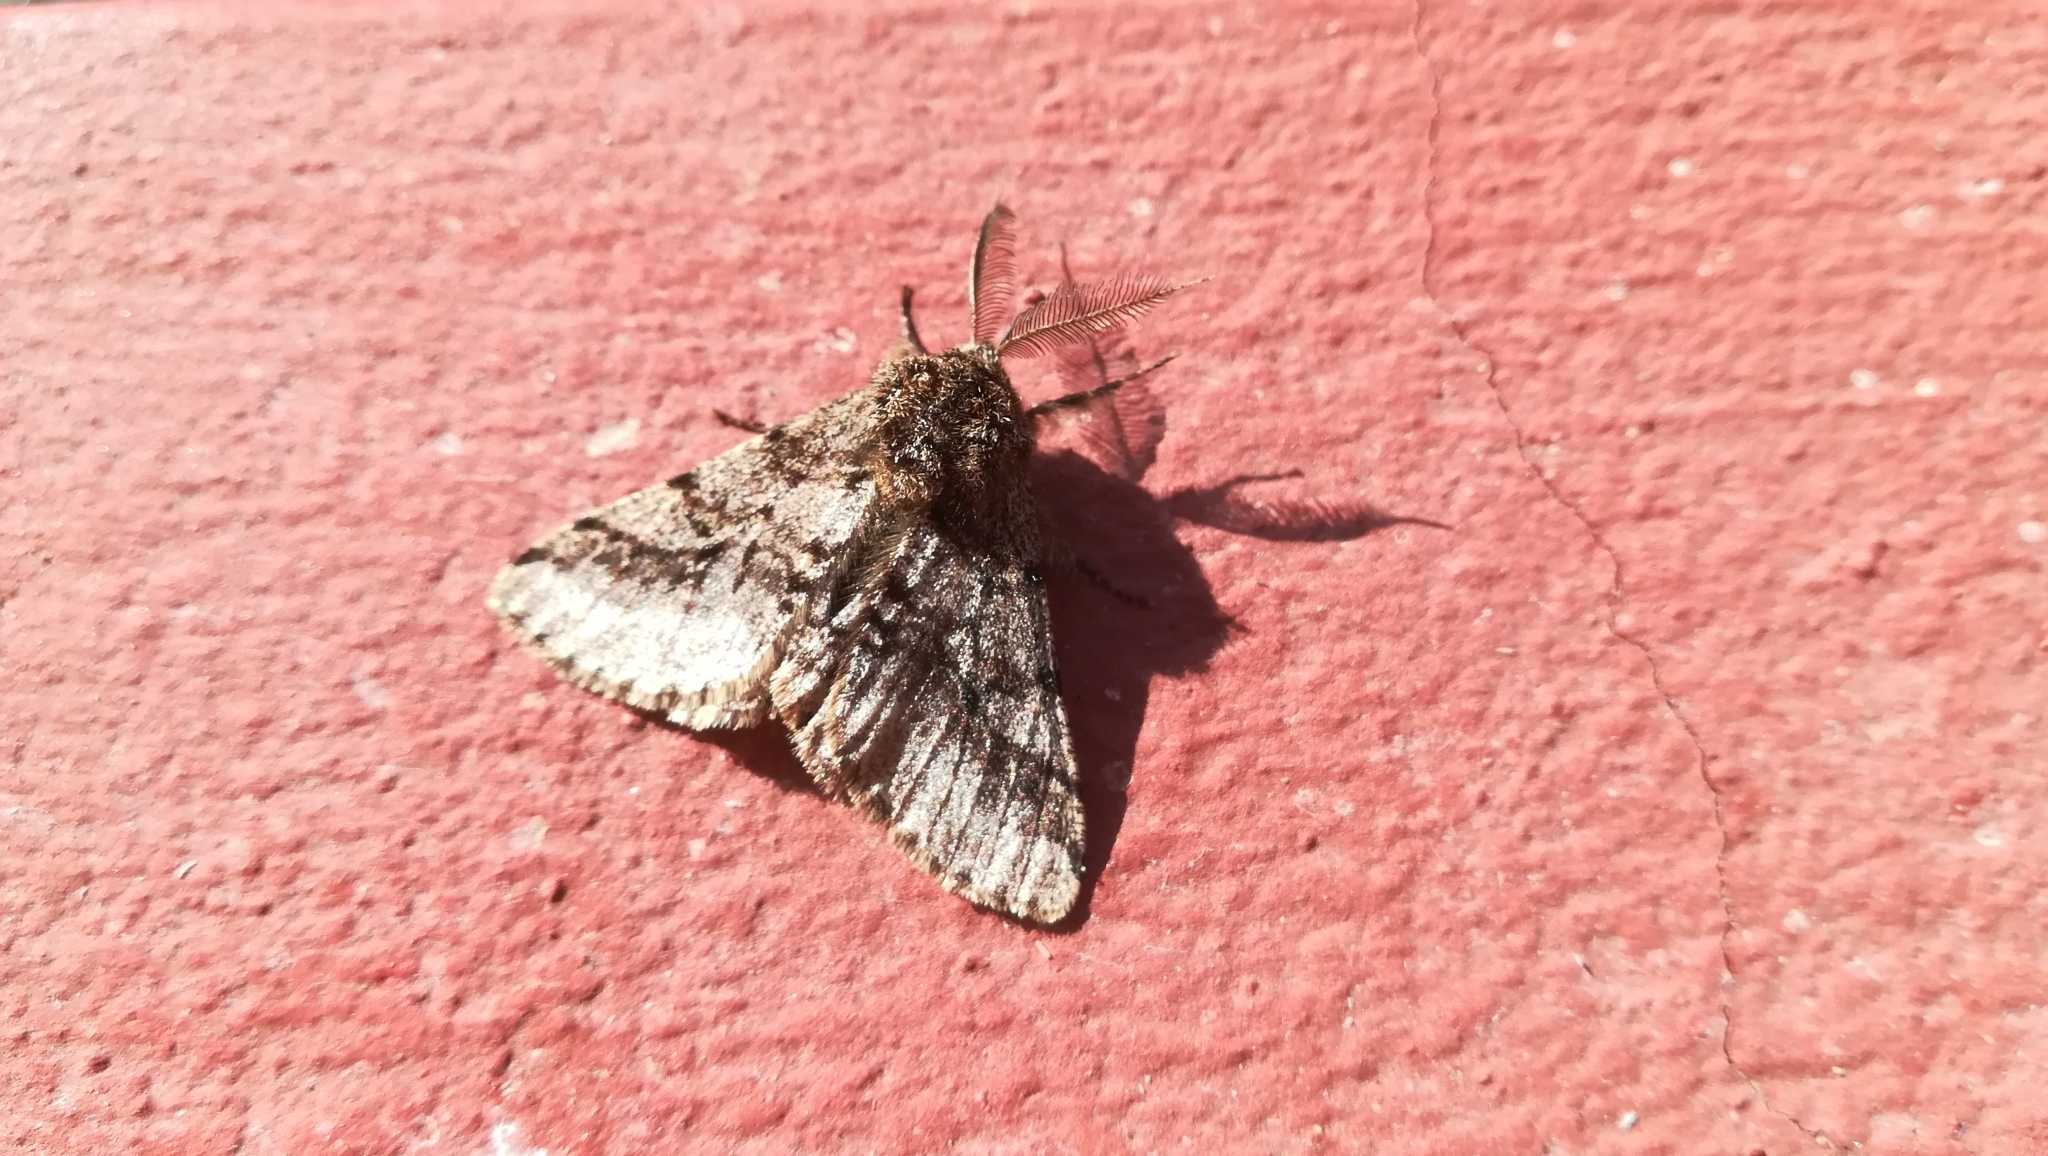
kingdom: Animalia
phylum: Arthropoda
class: Insecta
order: Lepidoptera
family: Geometridae
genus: Lycia
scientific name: Lycia hirtaria
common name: Brindled beauty
